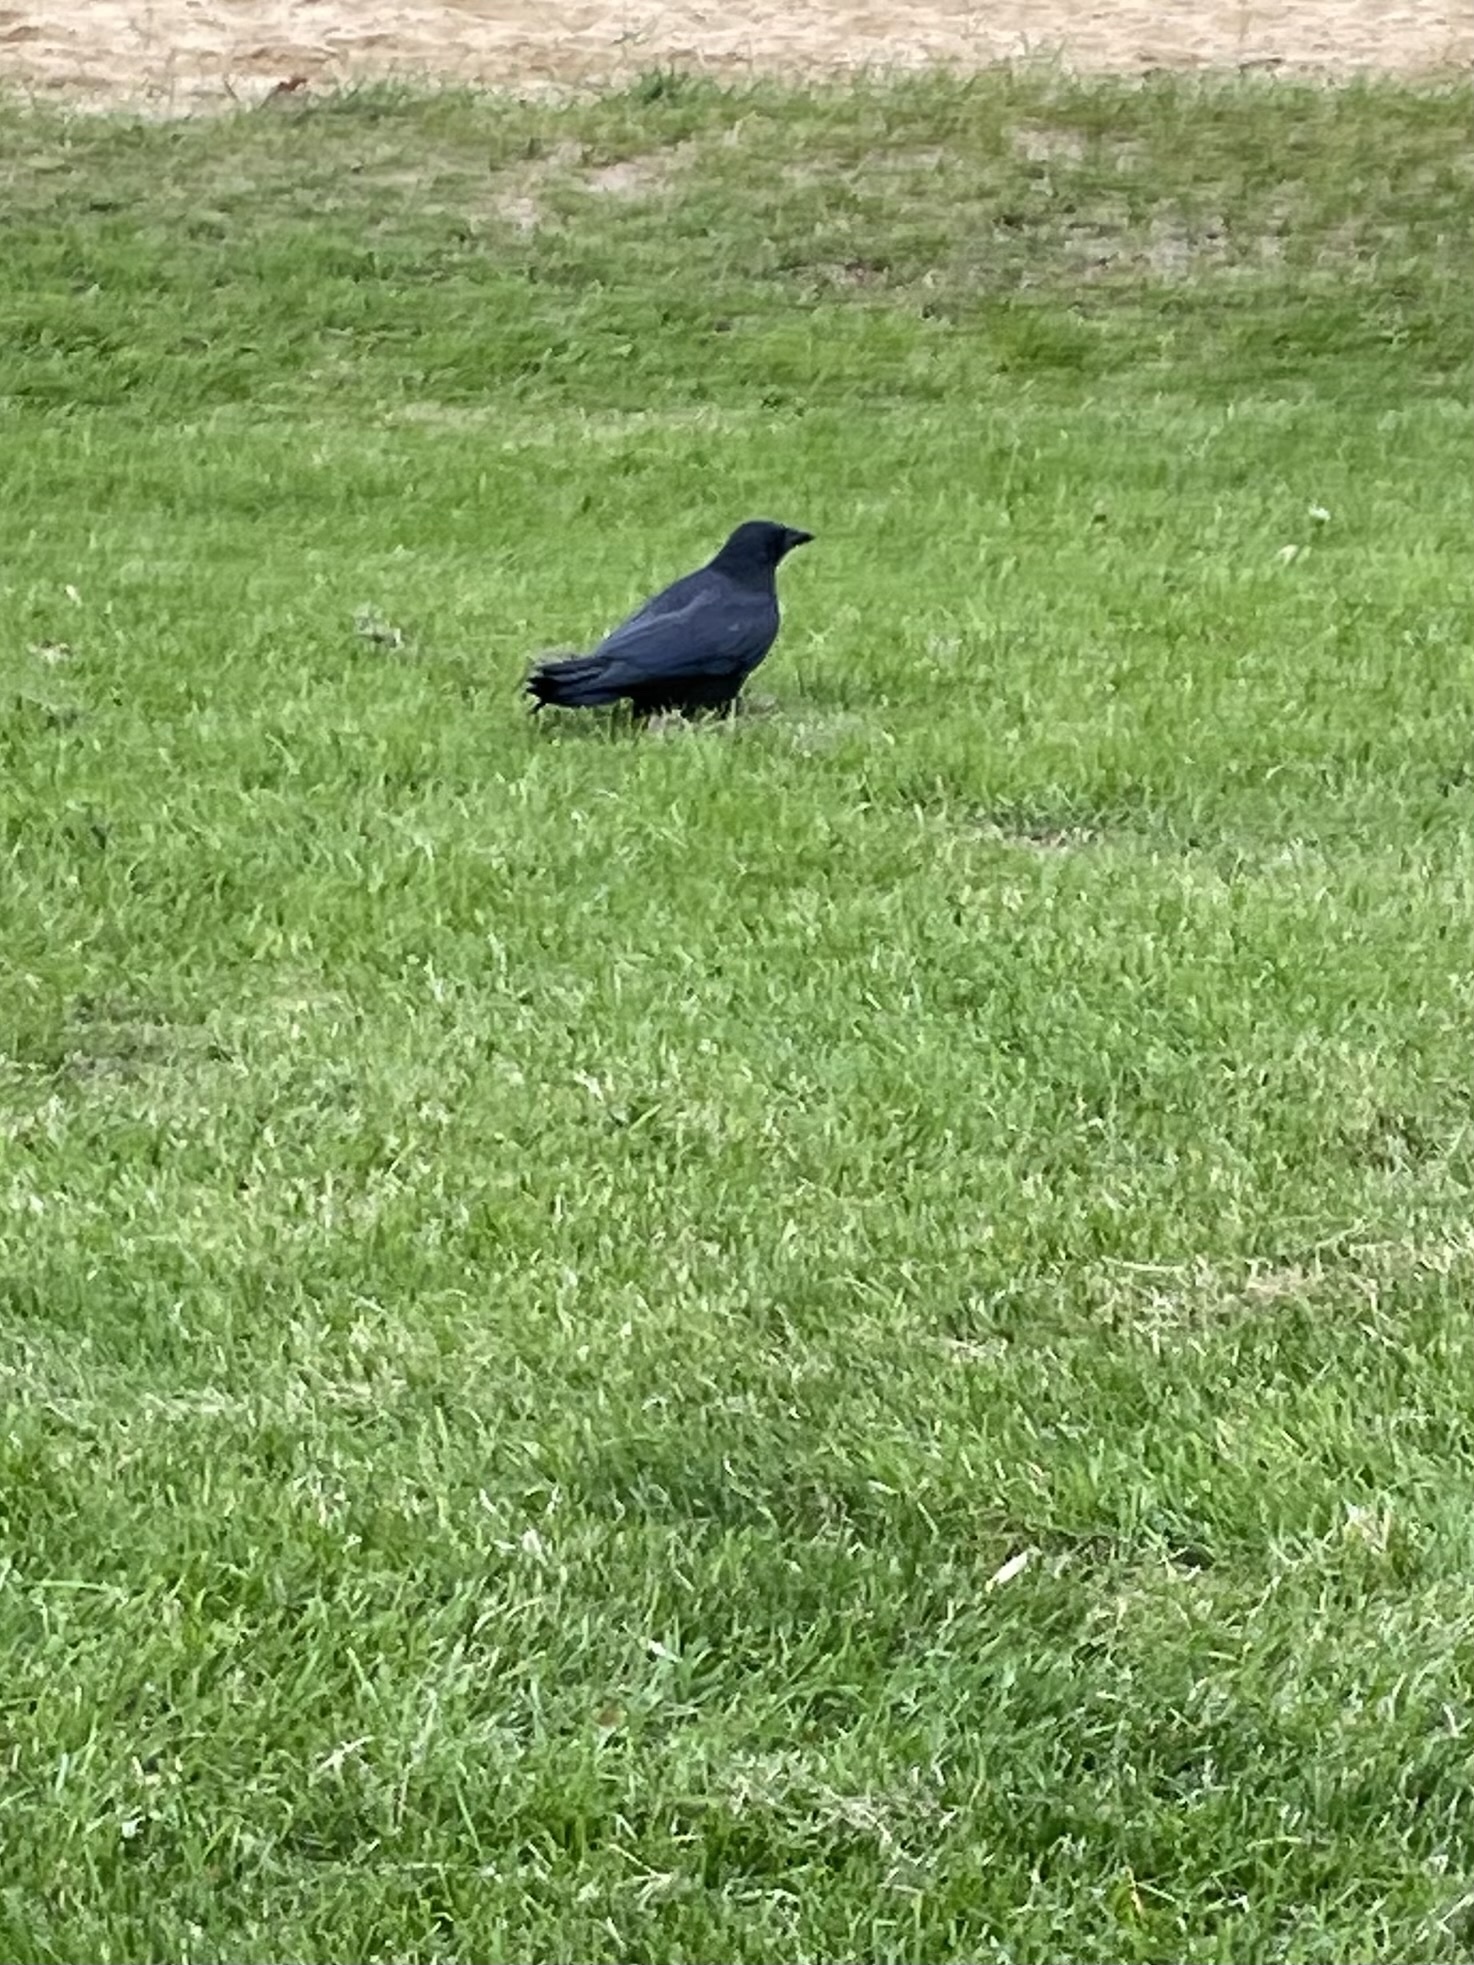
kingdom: Animalia
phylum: Chordata
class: Aves
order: Passeriformes
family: Corvidae
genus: Corvus
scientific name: Corvus brachyrhynchos
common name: American crow
